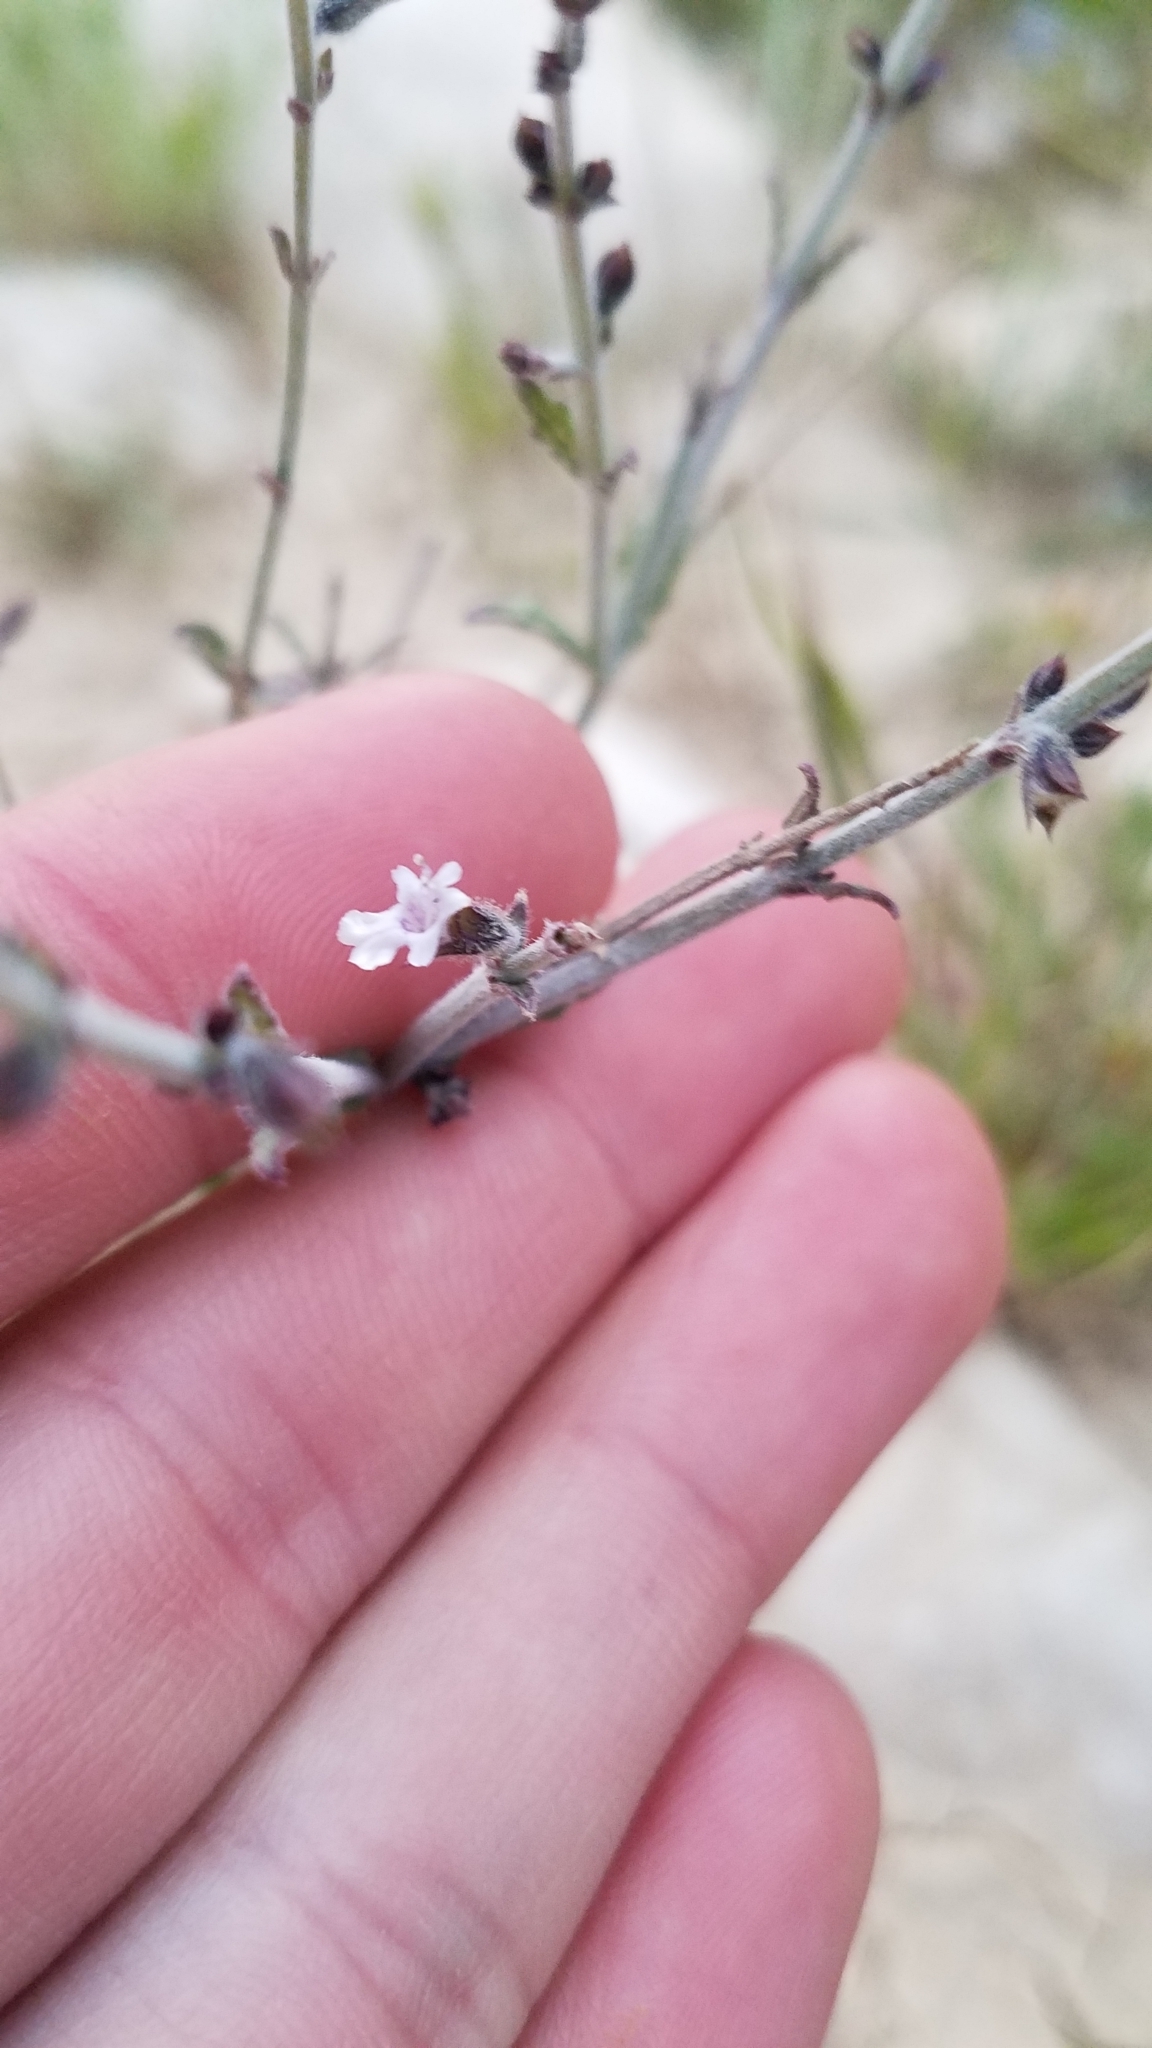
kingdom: Plantae
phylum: Tracheophyta
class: Magnoliopsida
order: Lamiales
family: Lamiaceae
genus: Salvia
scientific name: Salvia aegyptiaca
